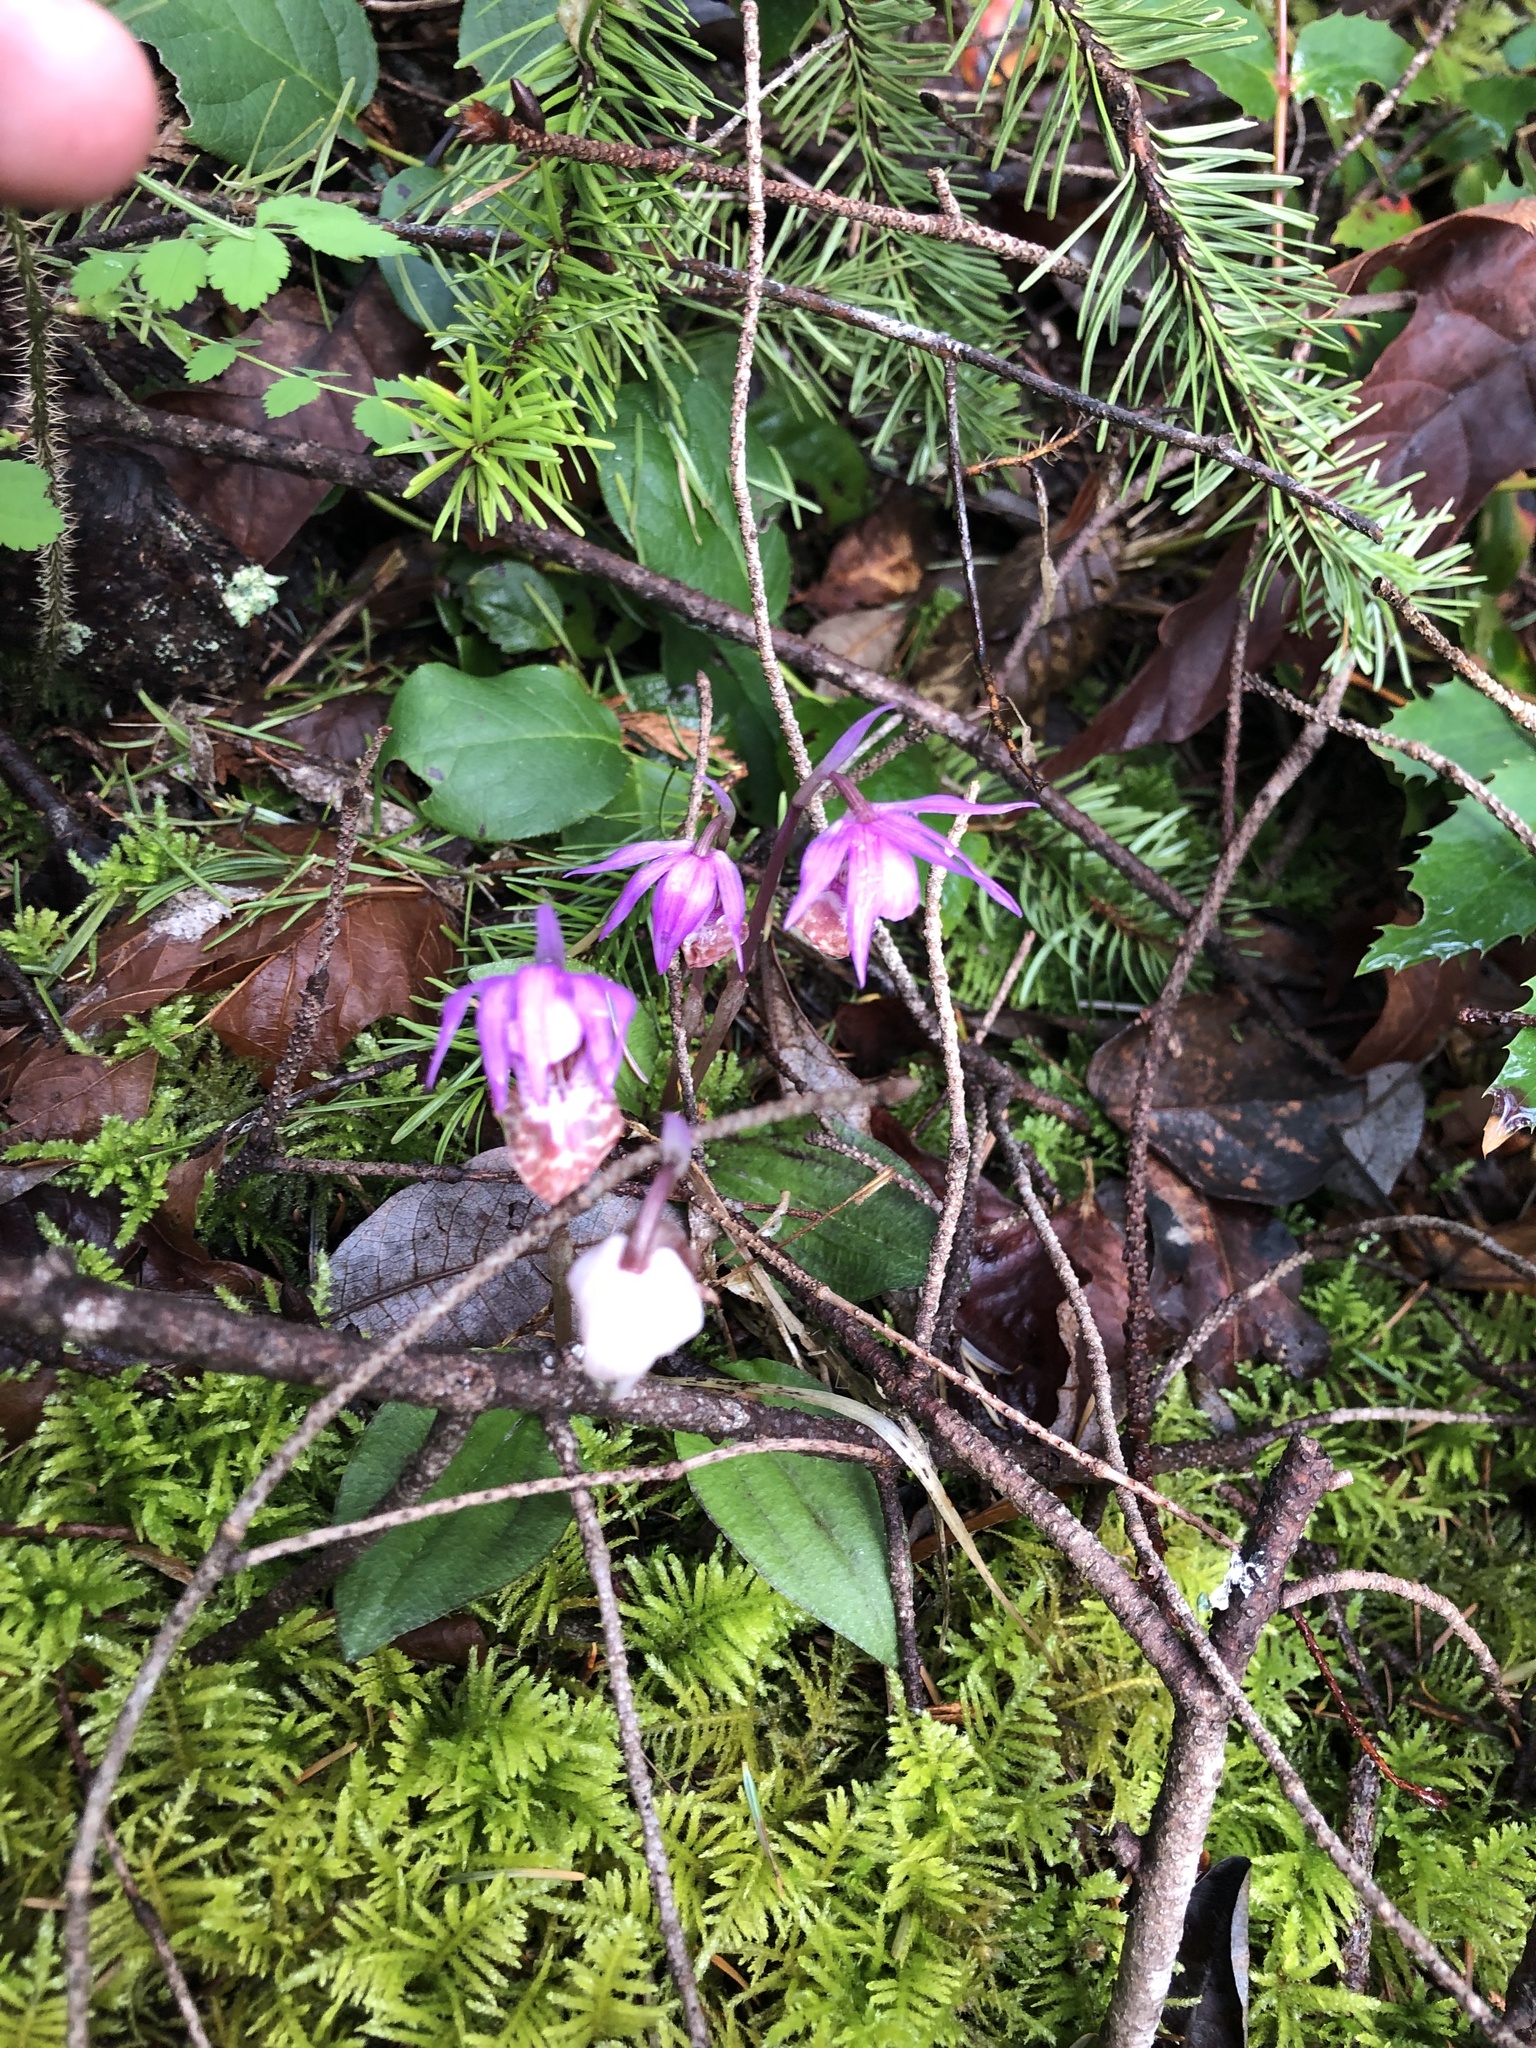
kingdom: Plantae
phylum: Tracheophyta
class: Liliopsida
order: Asparagales
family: Orchidaceae
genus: Calypso
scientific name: Calypso bulbosa
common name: Calypso
